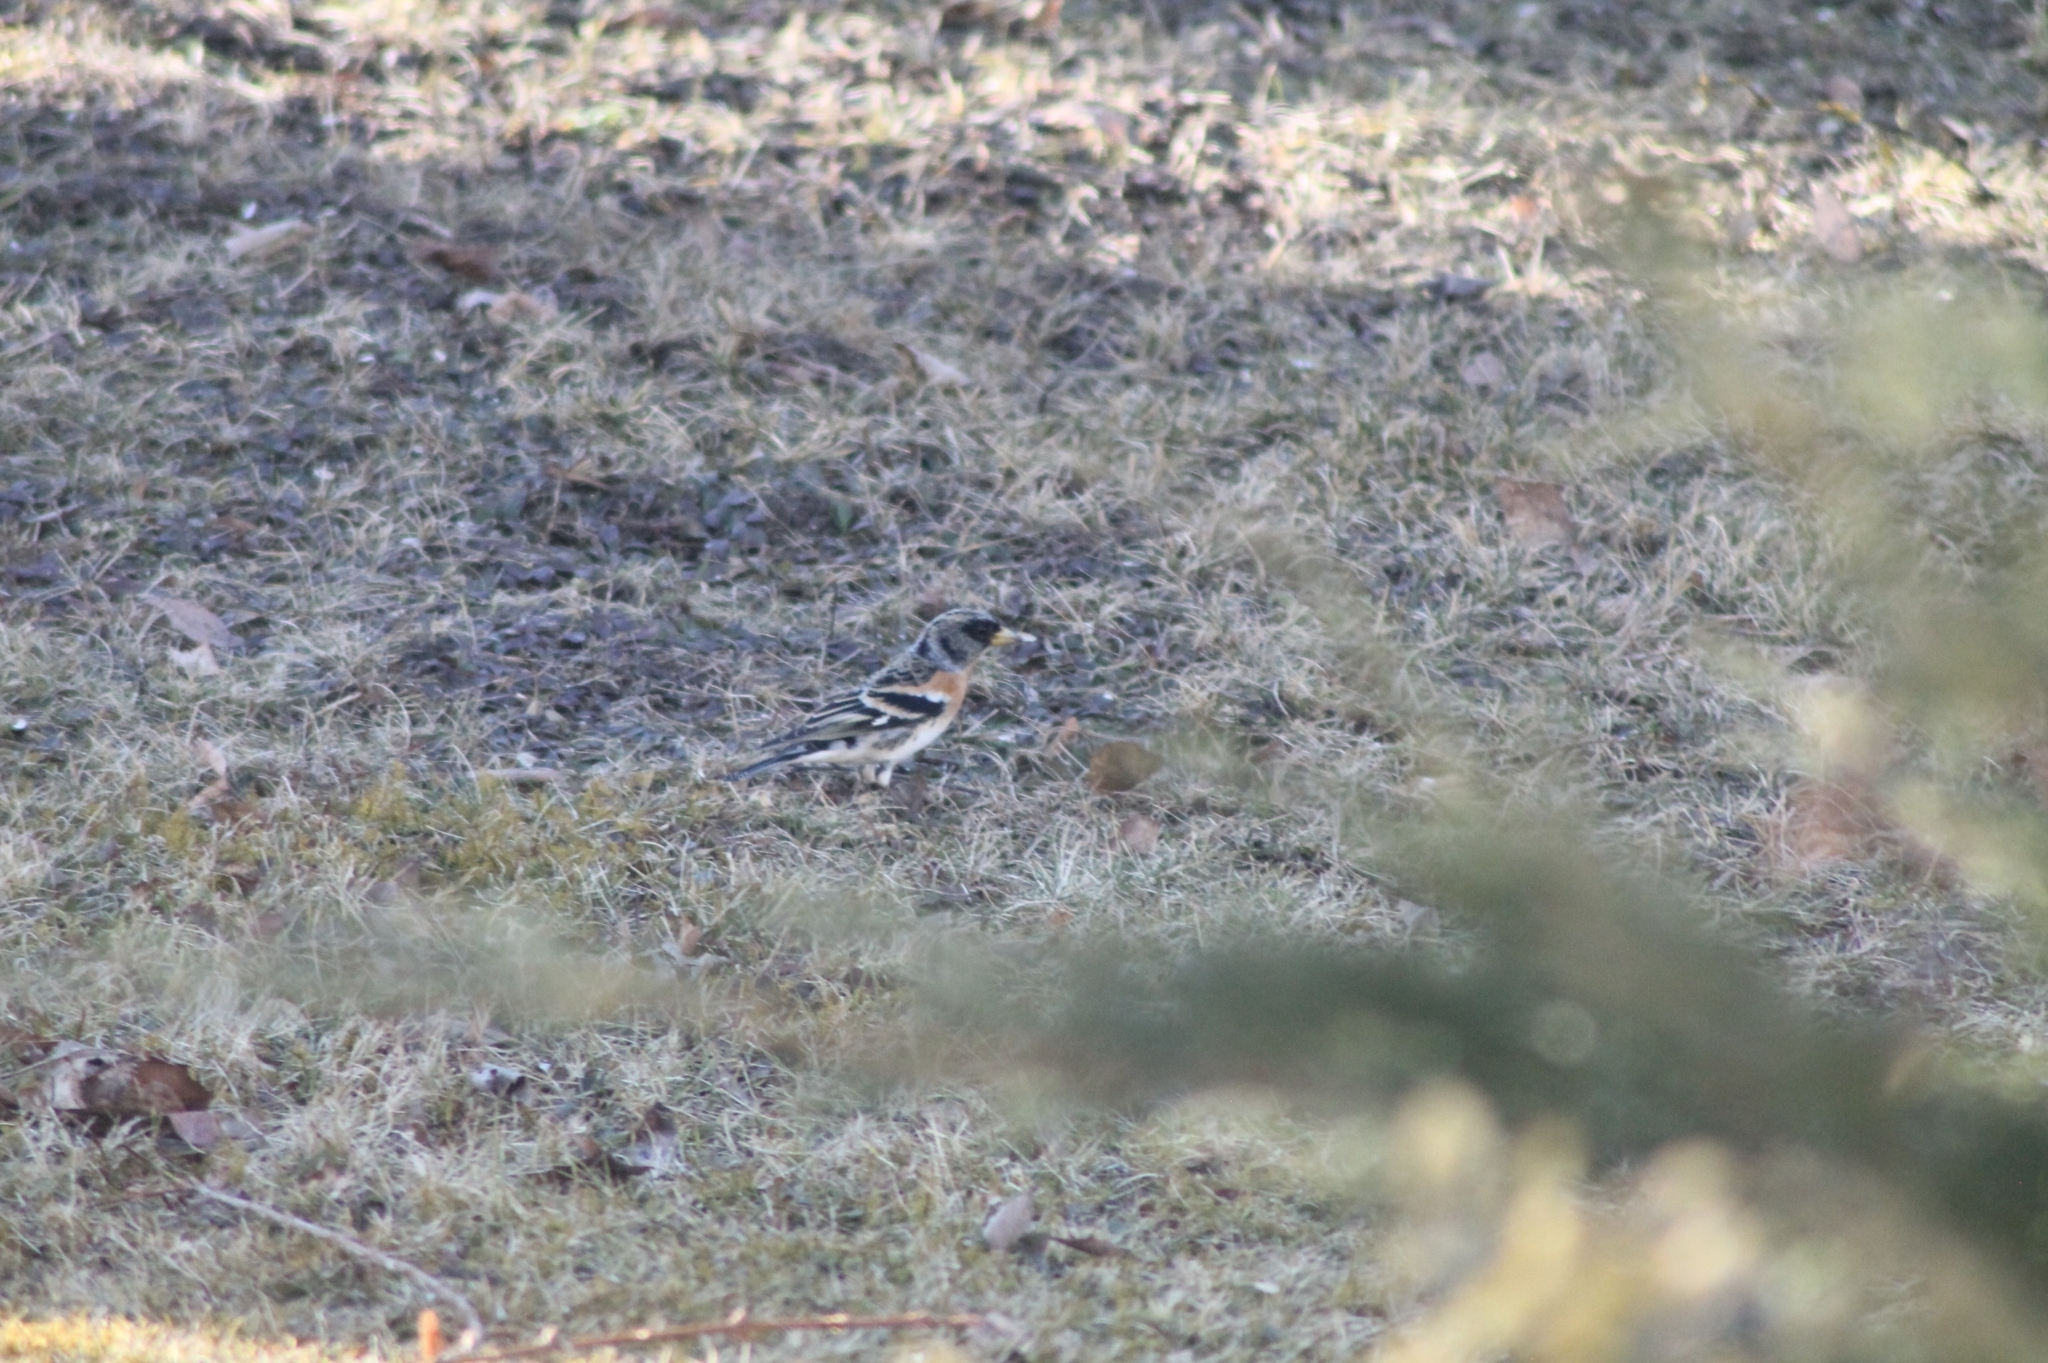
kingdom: Animalia
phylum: Chordata
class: Aves
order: Passeriformes
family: Fringillidae
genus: Fringilla
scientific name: Fringilla montifringilla
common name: Brambling
